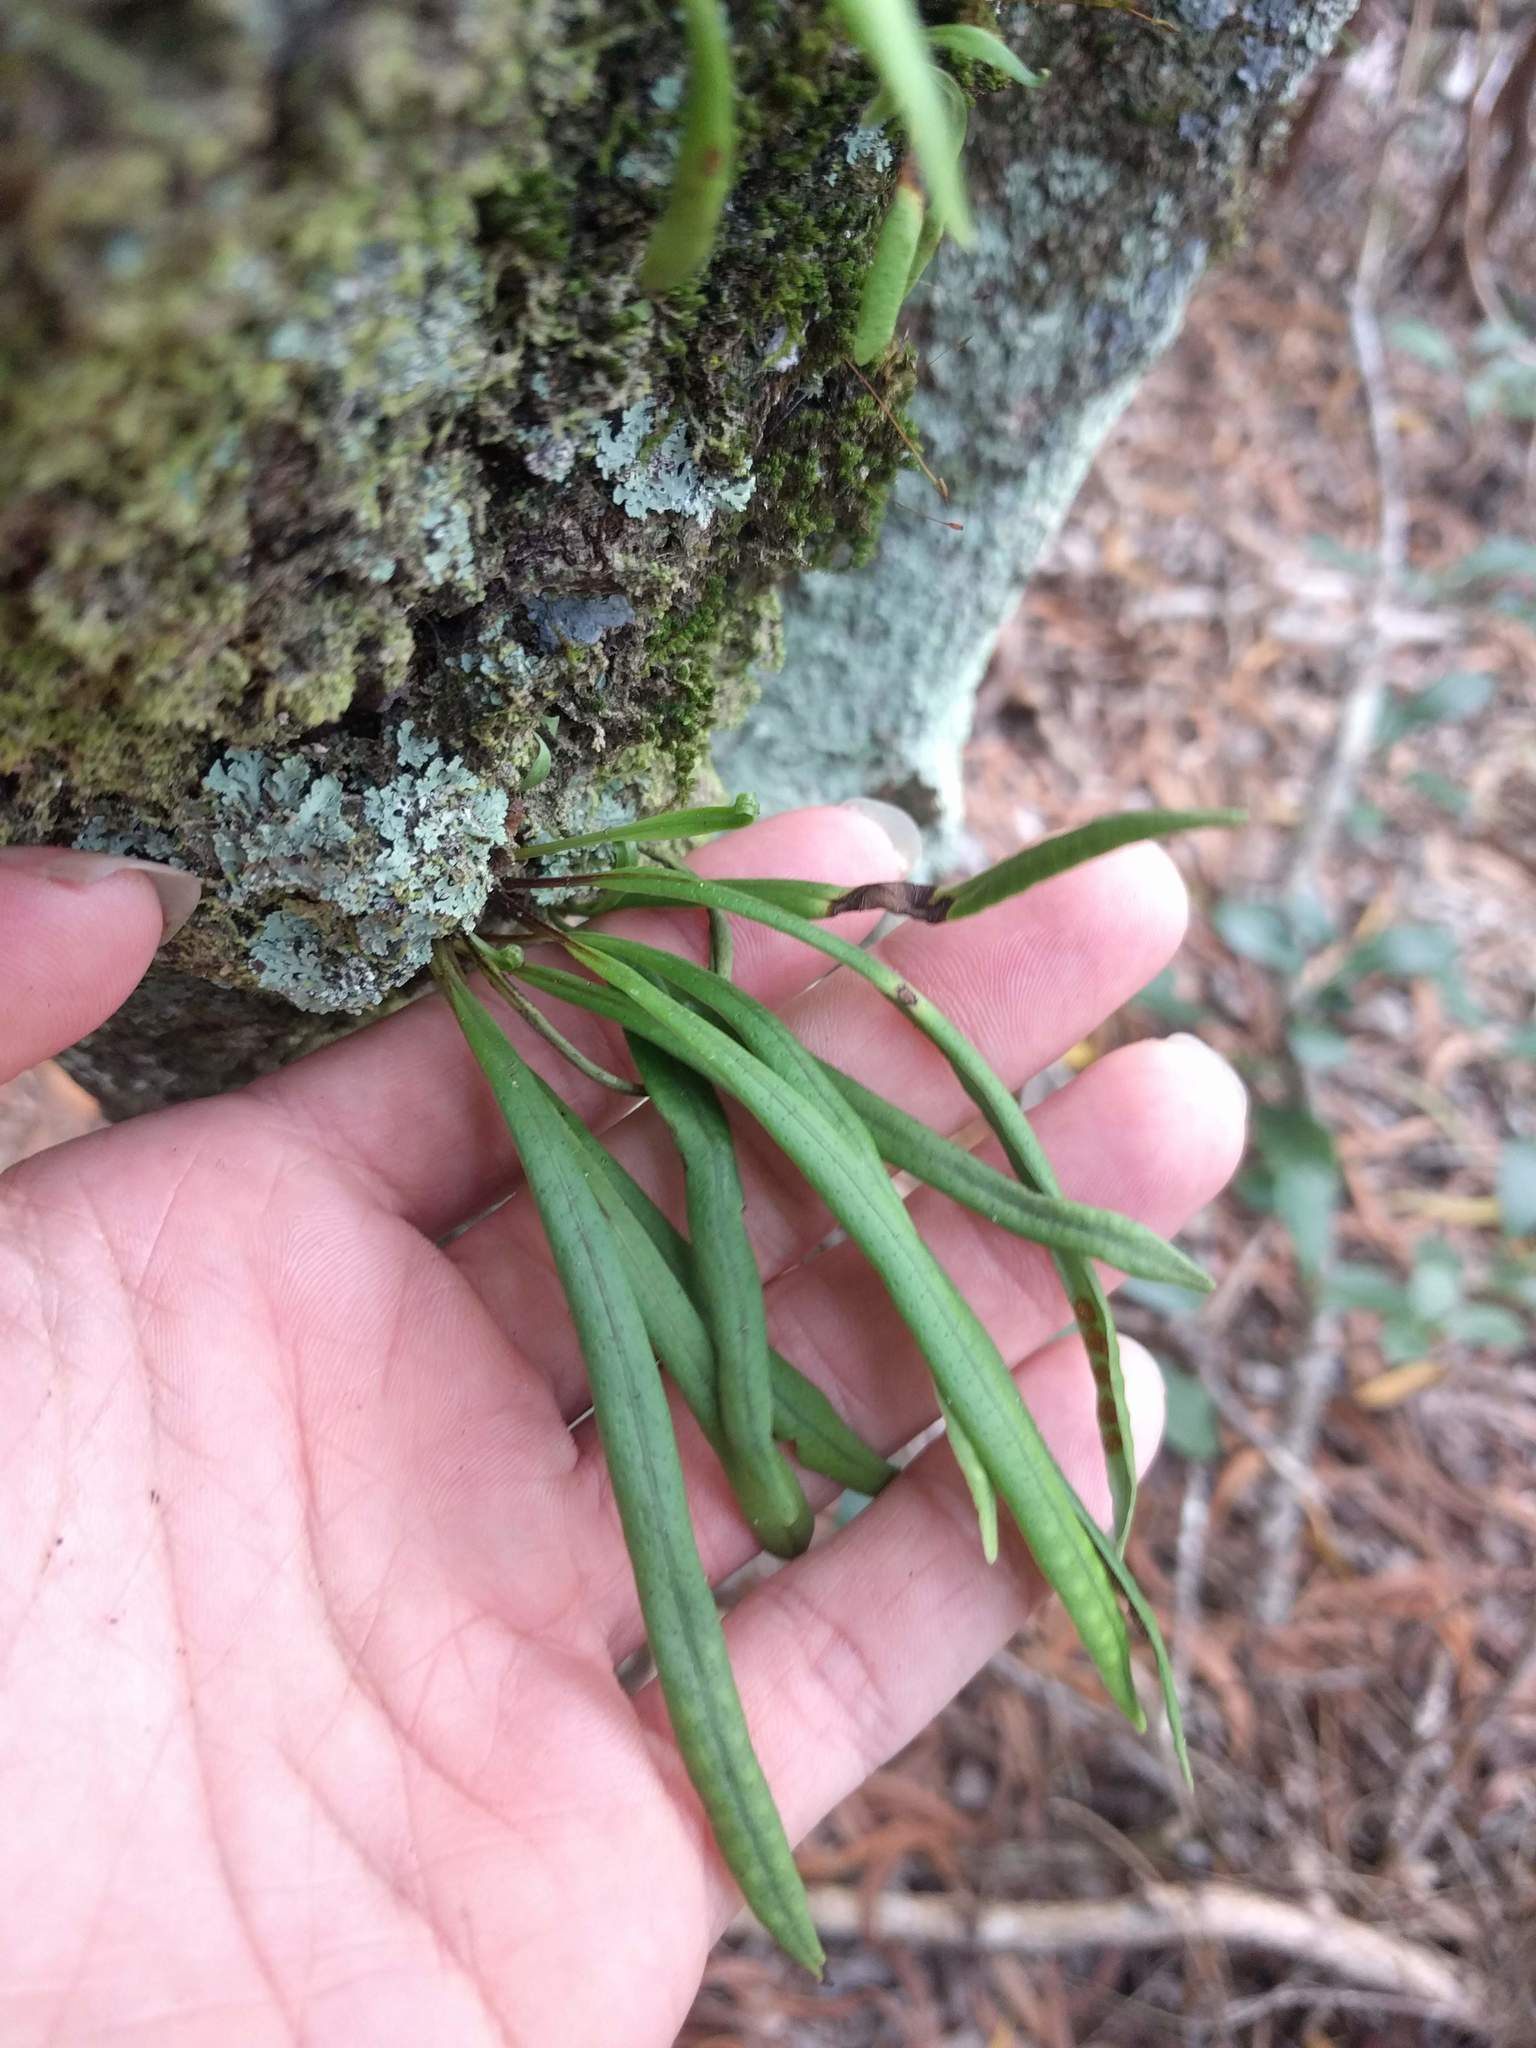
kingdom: Plantae
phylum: Tracheophyta
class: Polypodiopsida
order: Polypodiales
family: Polypodiaceae
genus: Lepisorus
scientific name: Lepisorus thunbergianus
